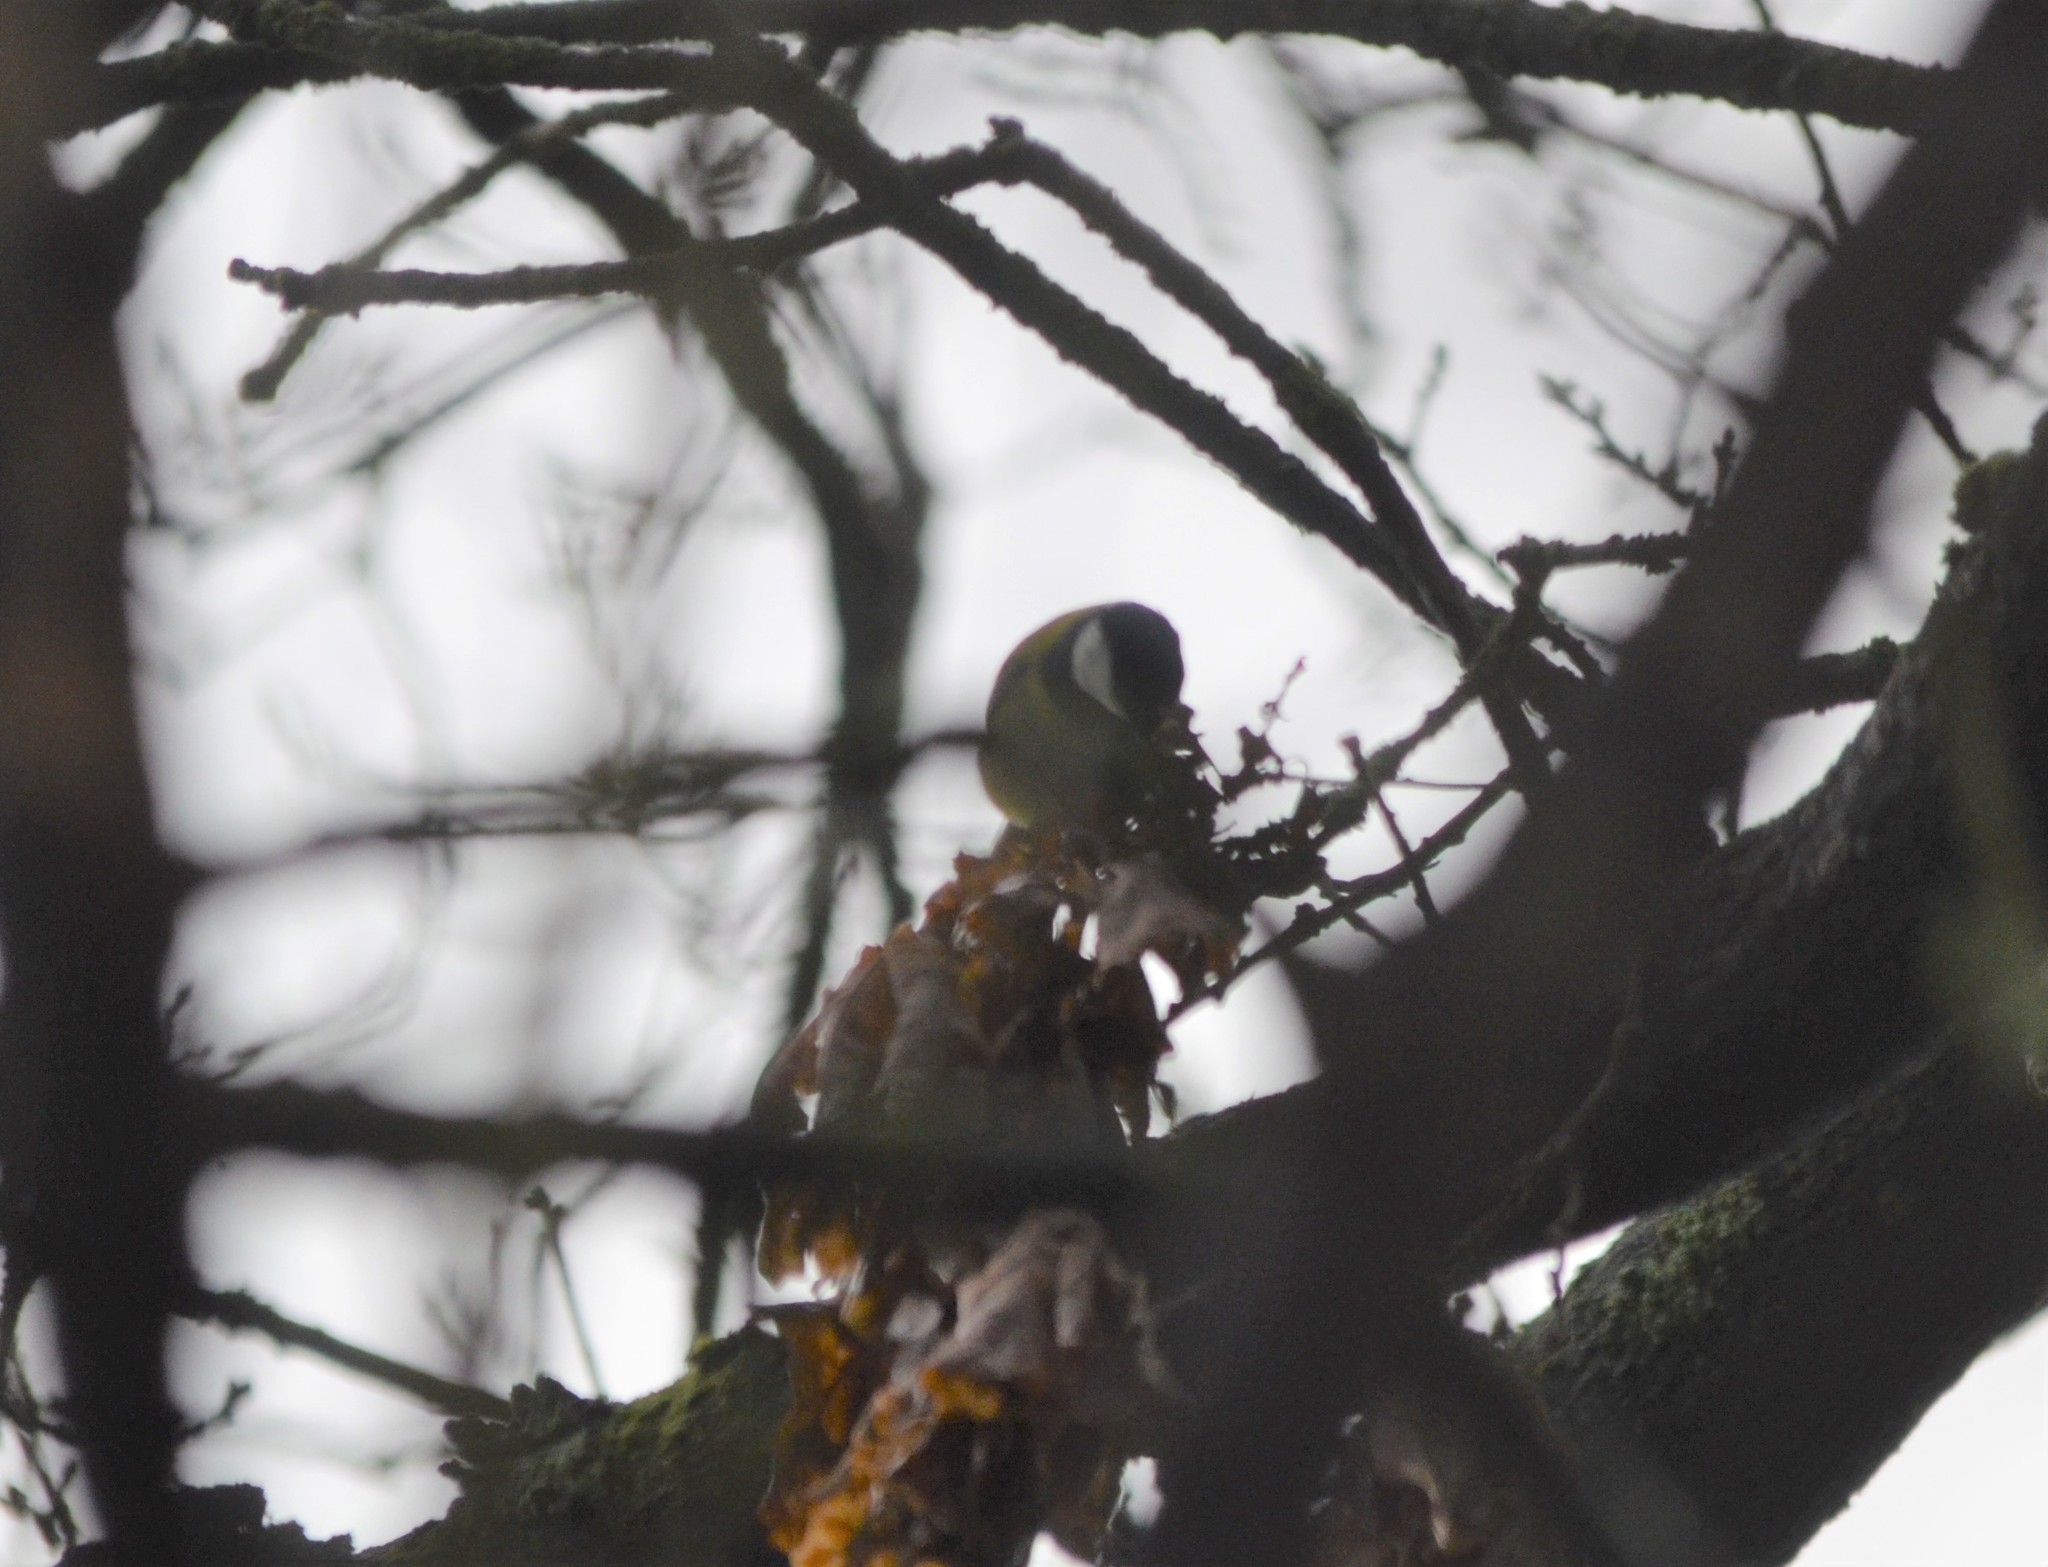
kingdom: Animalia
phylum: Chordata
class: Aves
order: Passeriformes
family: Paridae
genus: Parus
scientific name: Parus major
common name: Great tit
